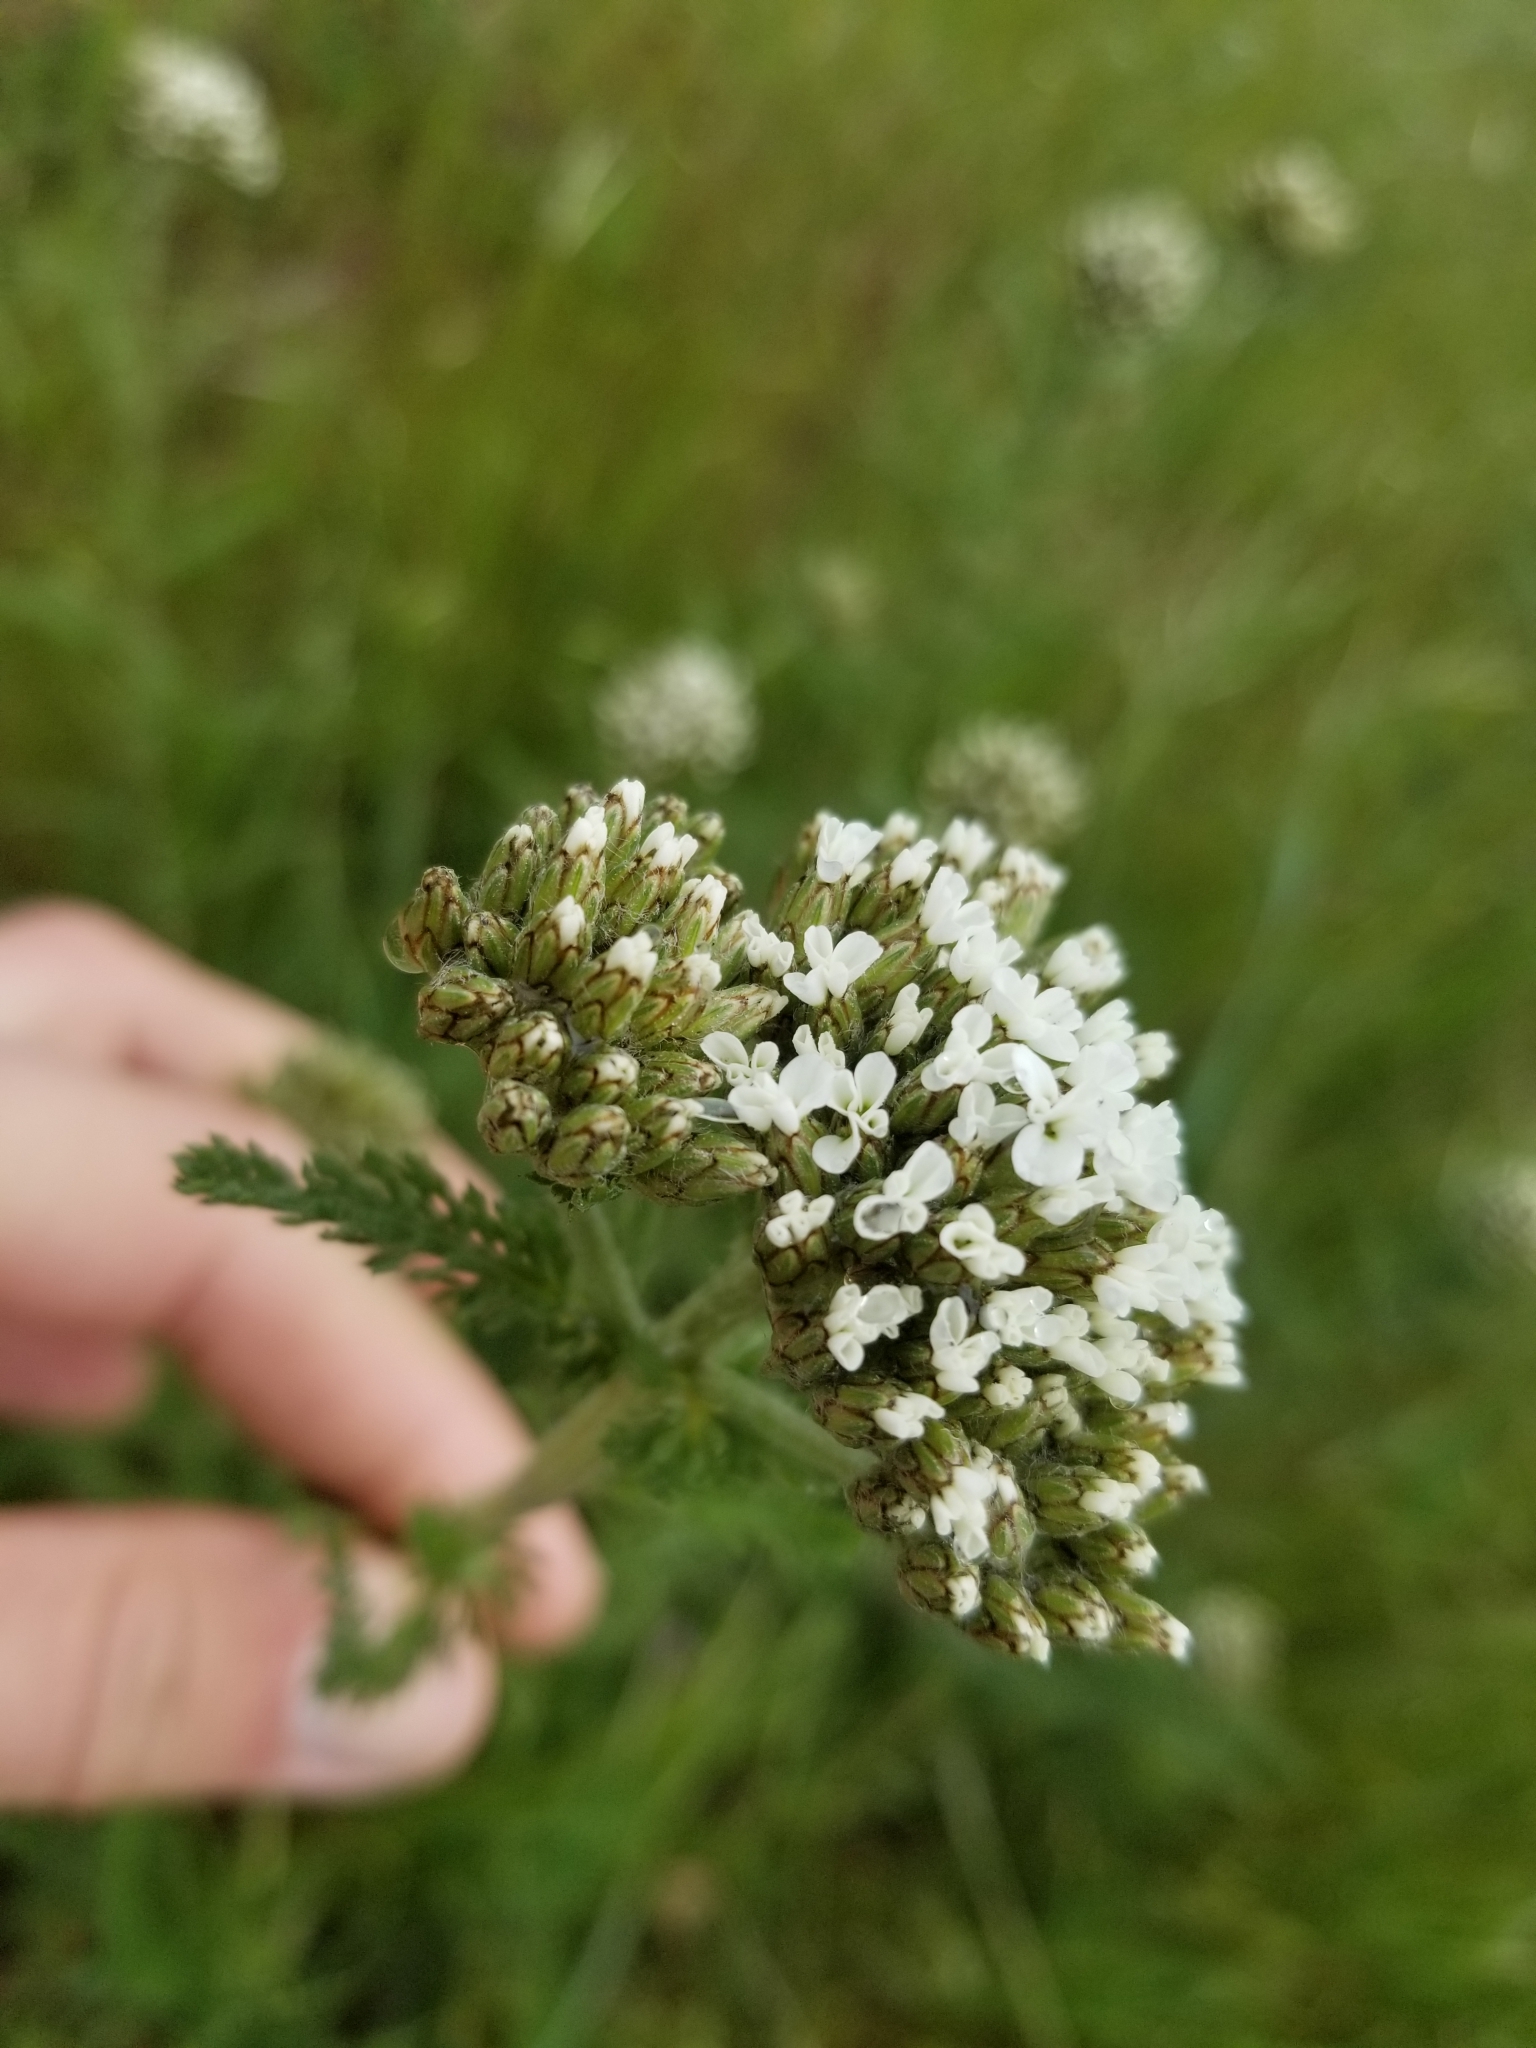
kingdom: Plantae
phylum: Tracheophyta
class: Magnoliopsida
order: Asterales
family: Asteraceae
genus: Achillea
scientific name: Achillea millefolium
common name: Yarrow
